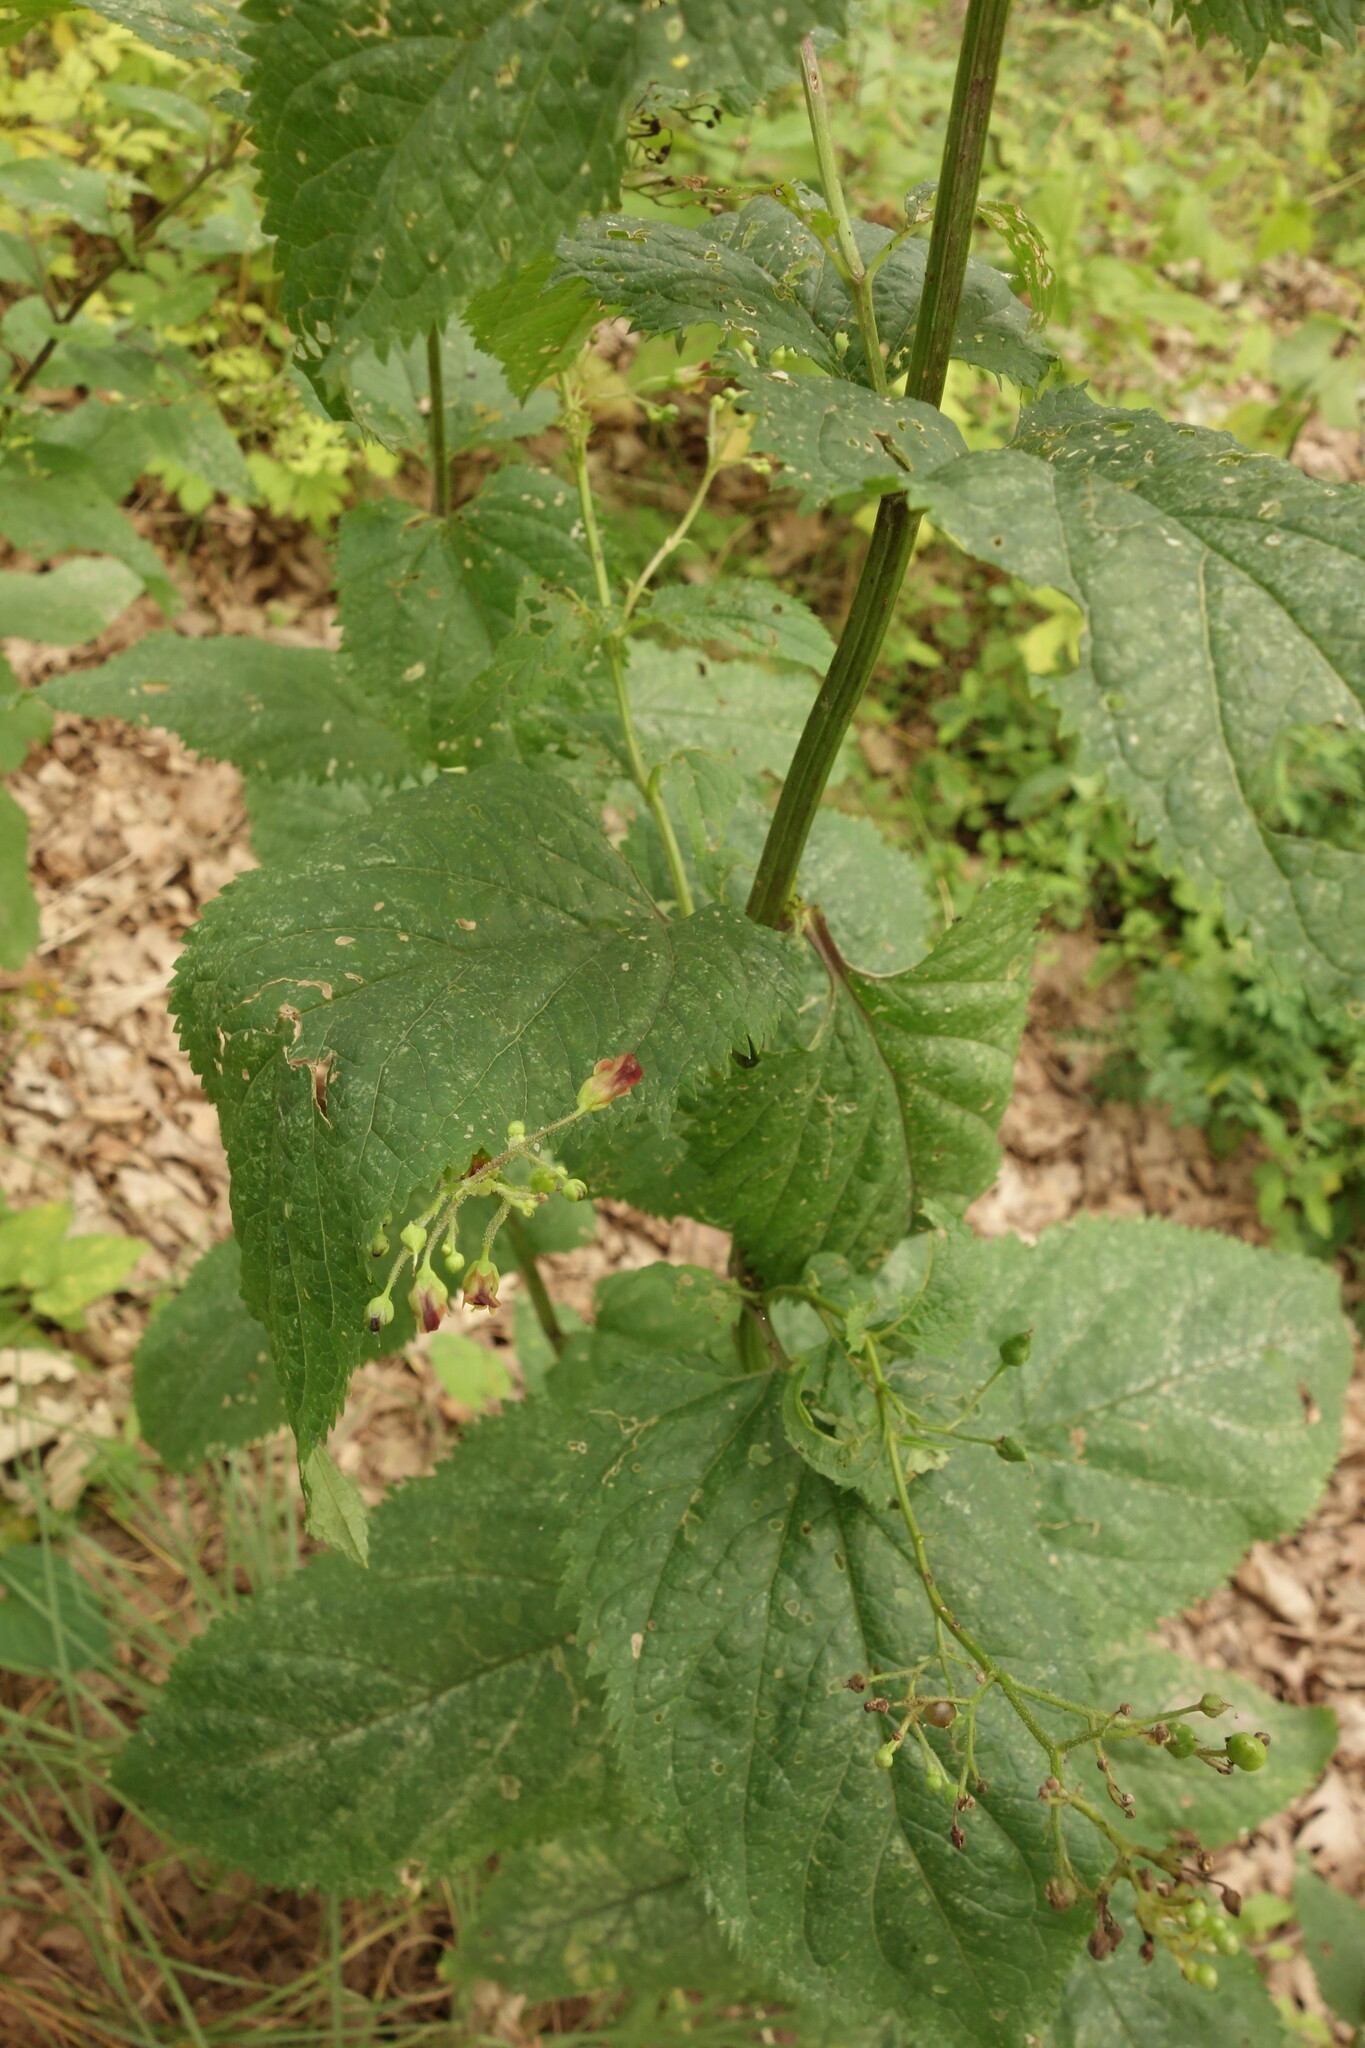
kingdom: Plantae
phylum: Tracheophyta
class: Magnoliopsida
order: Lamiales
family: Scrophulariaceae
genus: Scrophularia
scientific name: Scrophularia nodosa
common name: Common figwort
